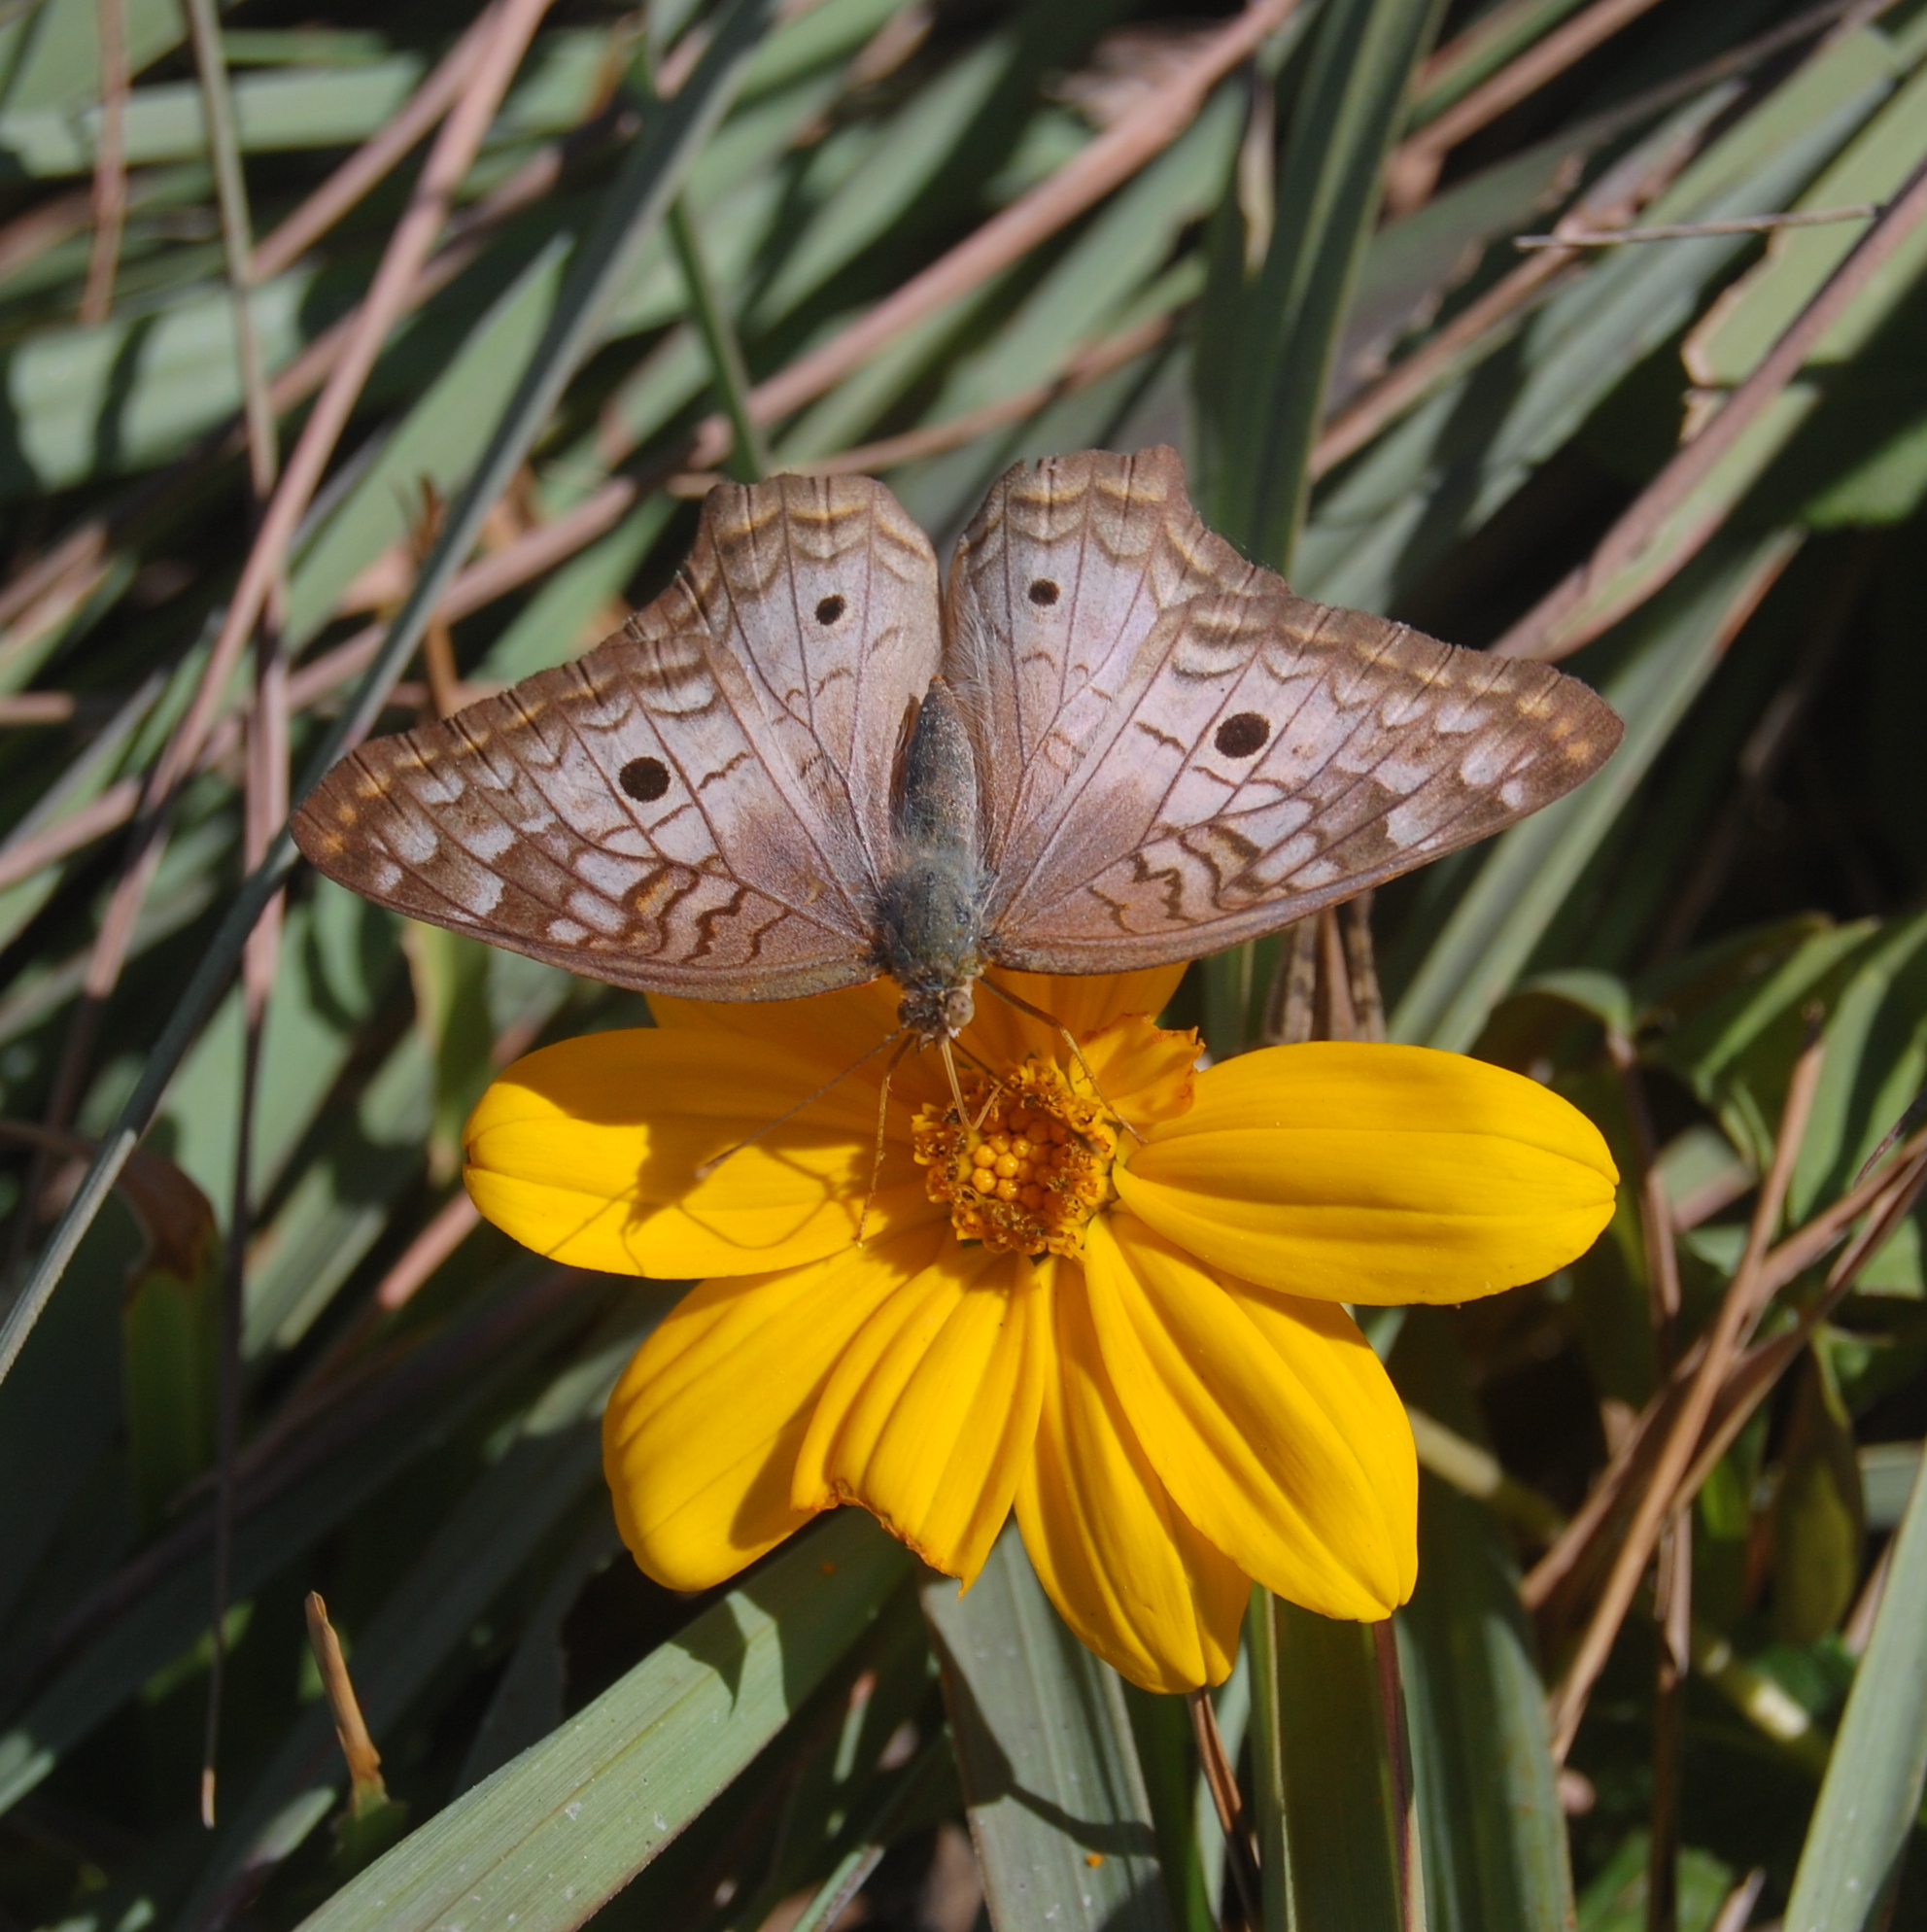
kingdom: Animalia
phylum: Arthropoda
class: Insecta
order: Lepidoptera
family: Nymphalidae
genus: Anartia
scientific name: Anartia jatrophae
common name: White peacock
